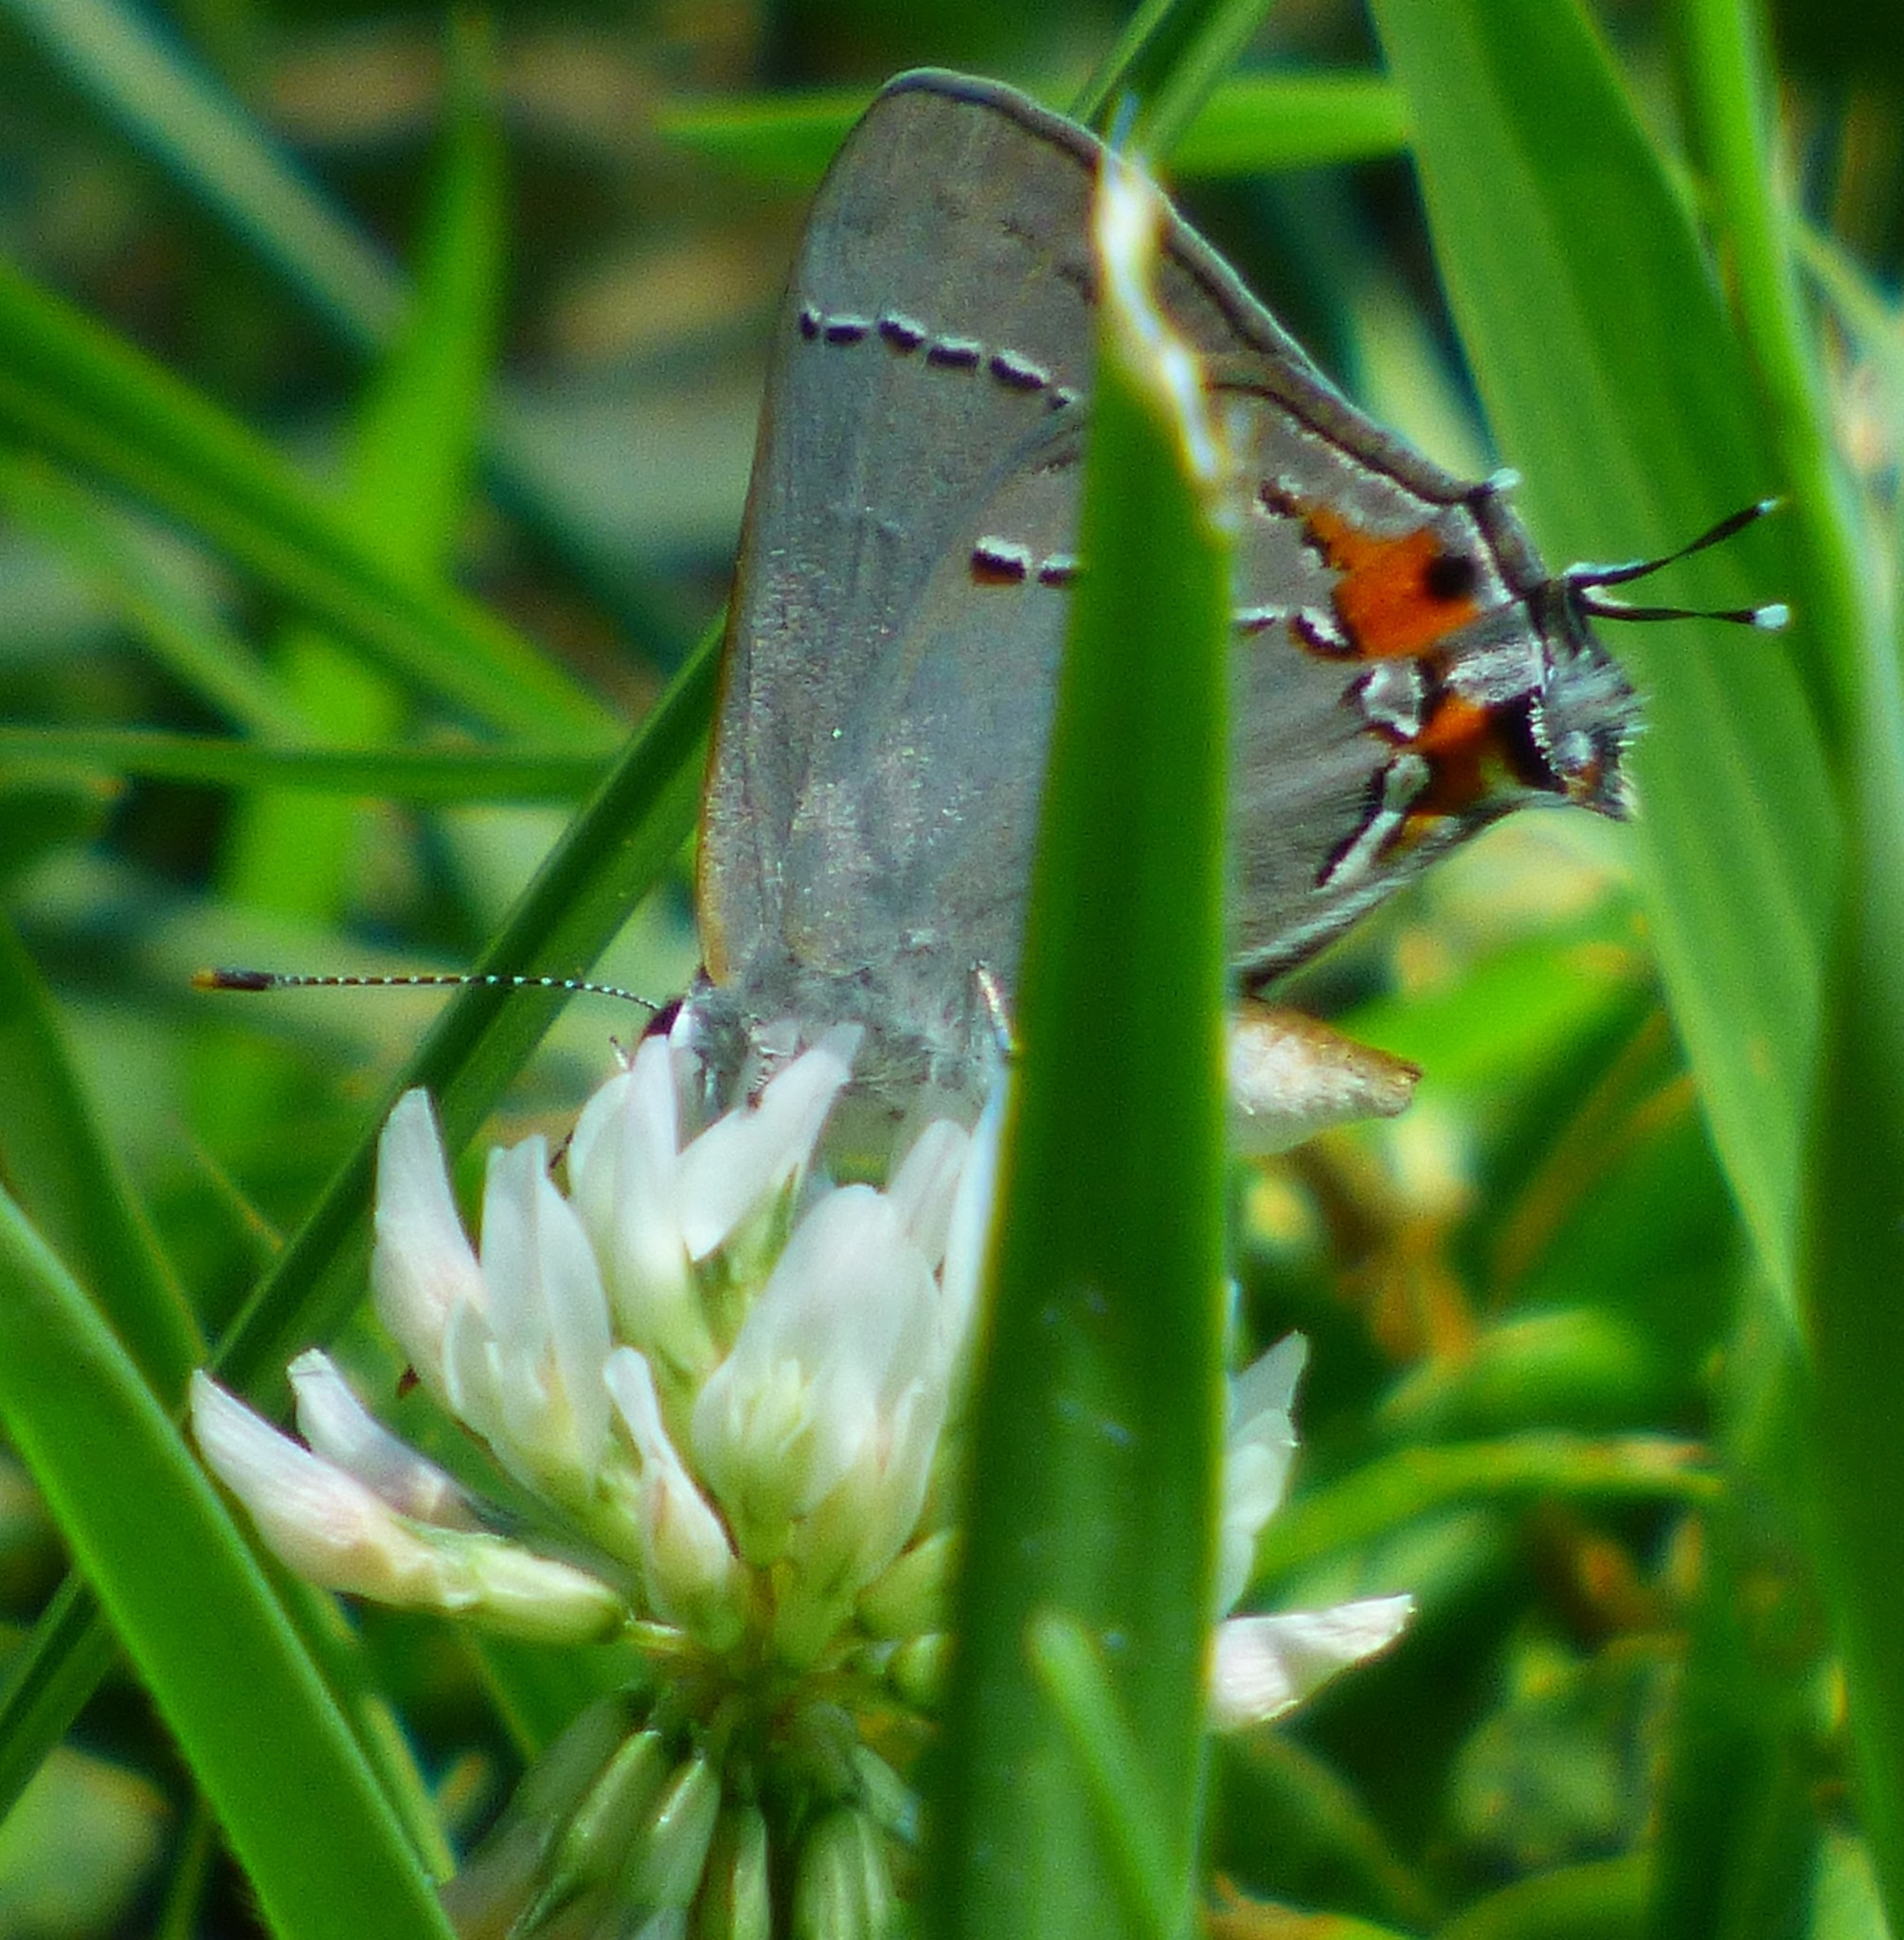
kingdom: Animalia
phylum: Arthropoda
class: Insecta
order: Lepidoptera
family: Lycaenidae
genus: Strymon
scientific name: Strymon melinus
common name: Gray hairstreak
